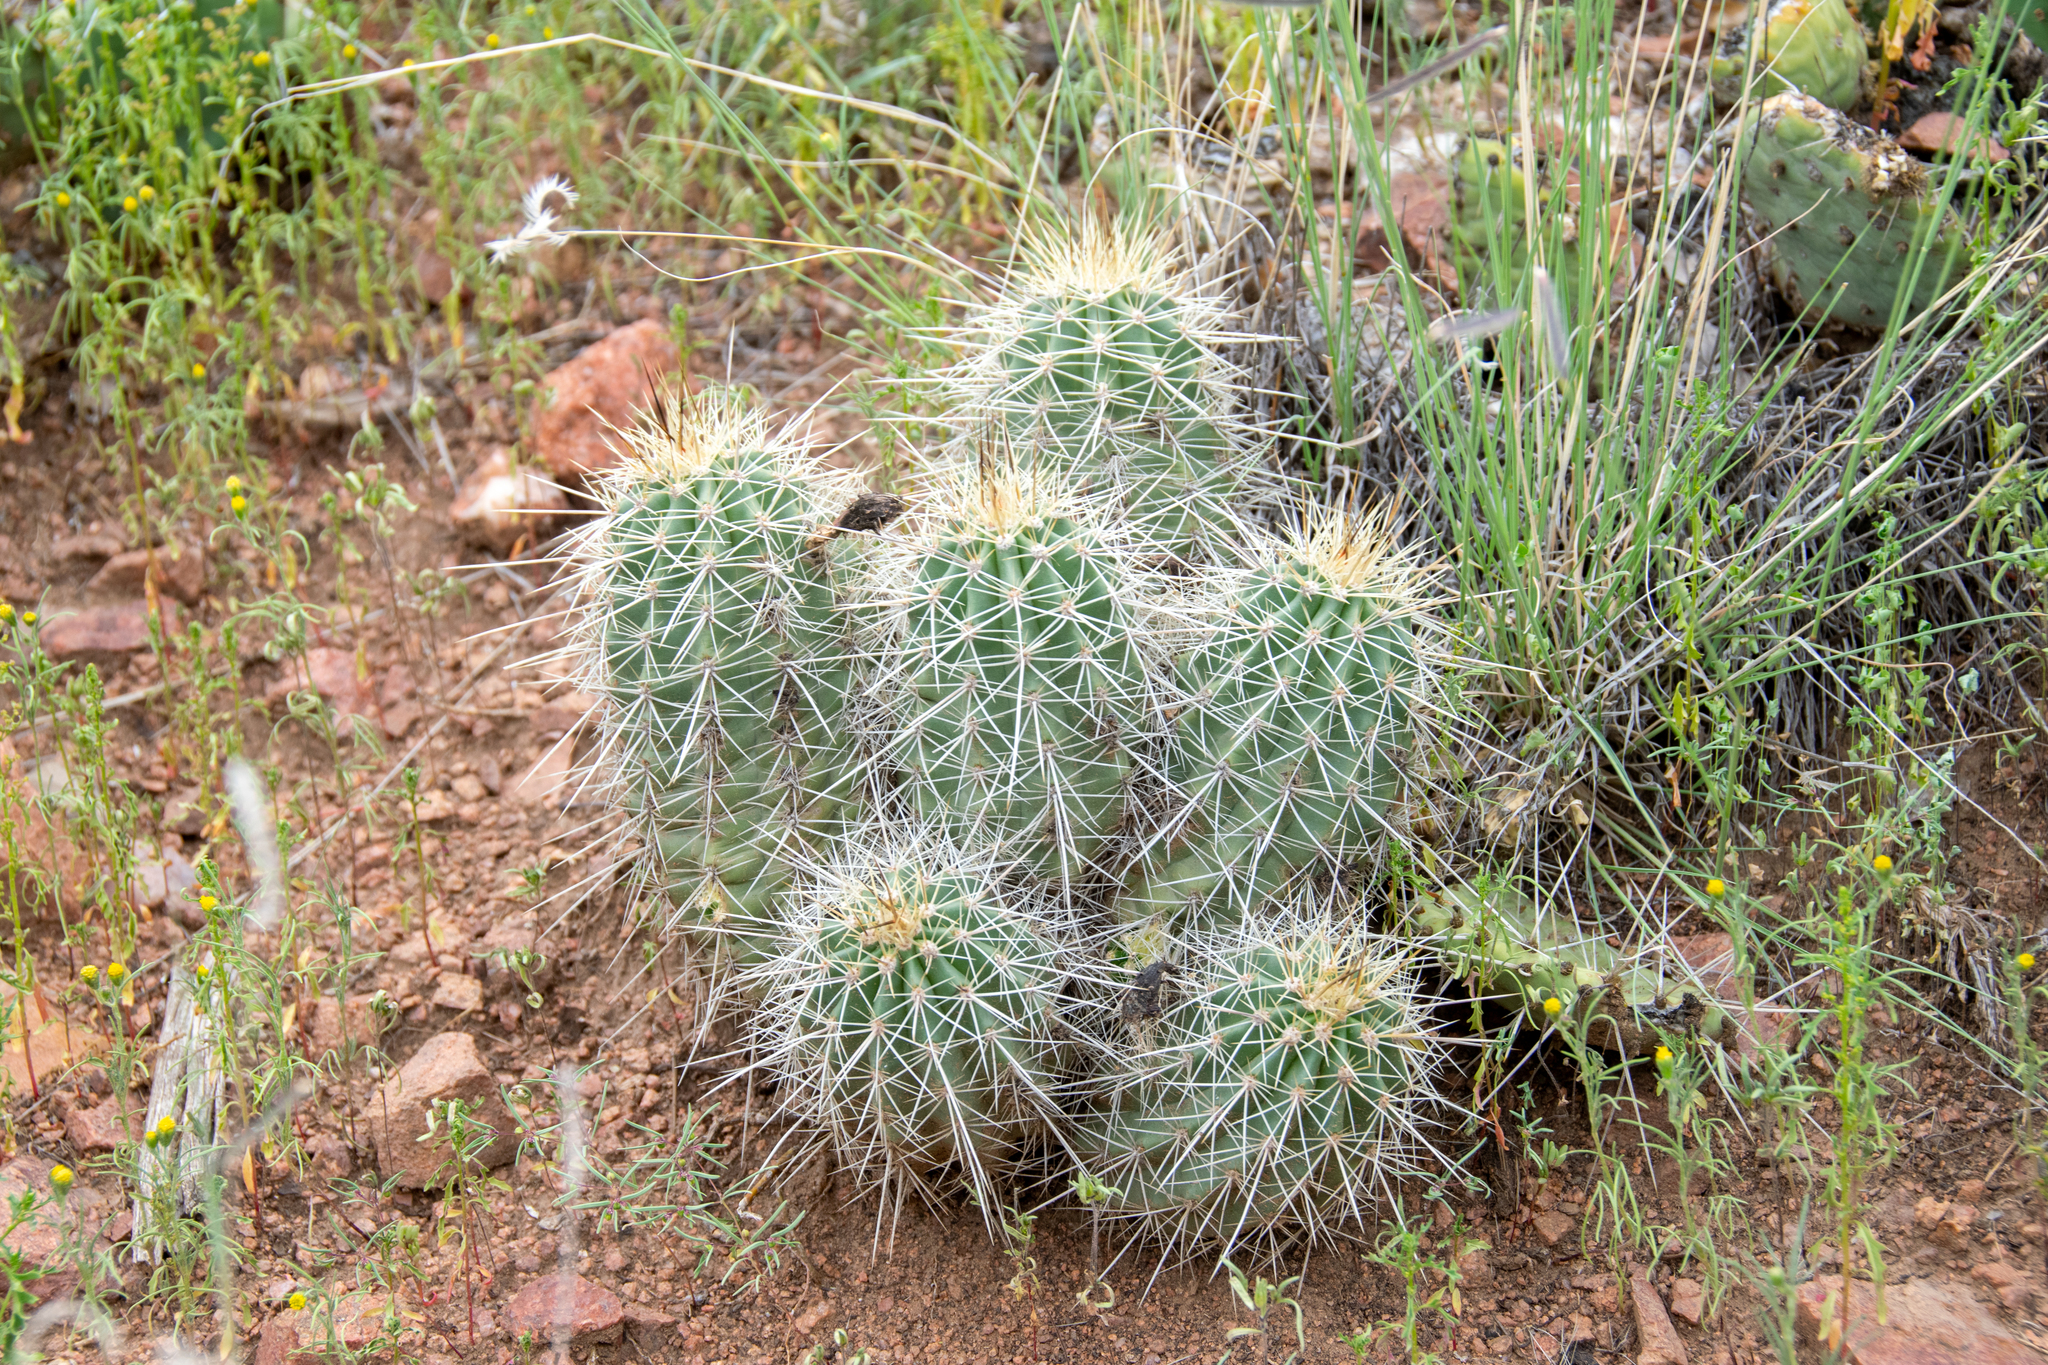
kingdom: Plantae
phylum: Tracheophyta
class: Magnoliopsida
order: Caryophyllales
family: Cactaceae
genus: Echinocereus
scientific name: Echinocereus coccineus
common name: Scarlet hedgehog cactus
